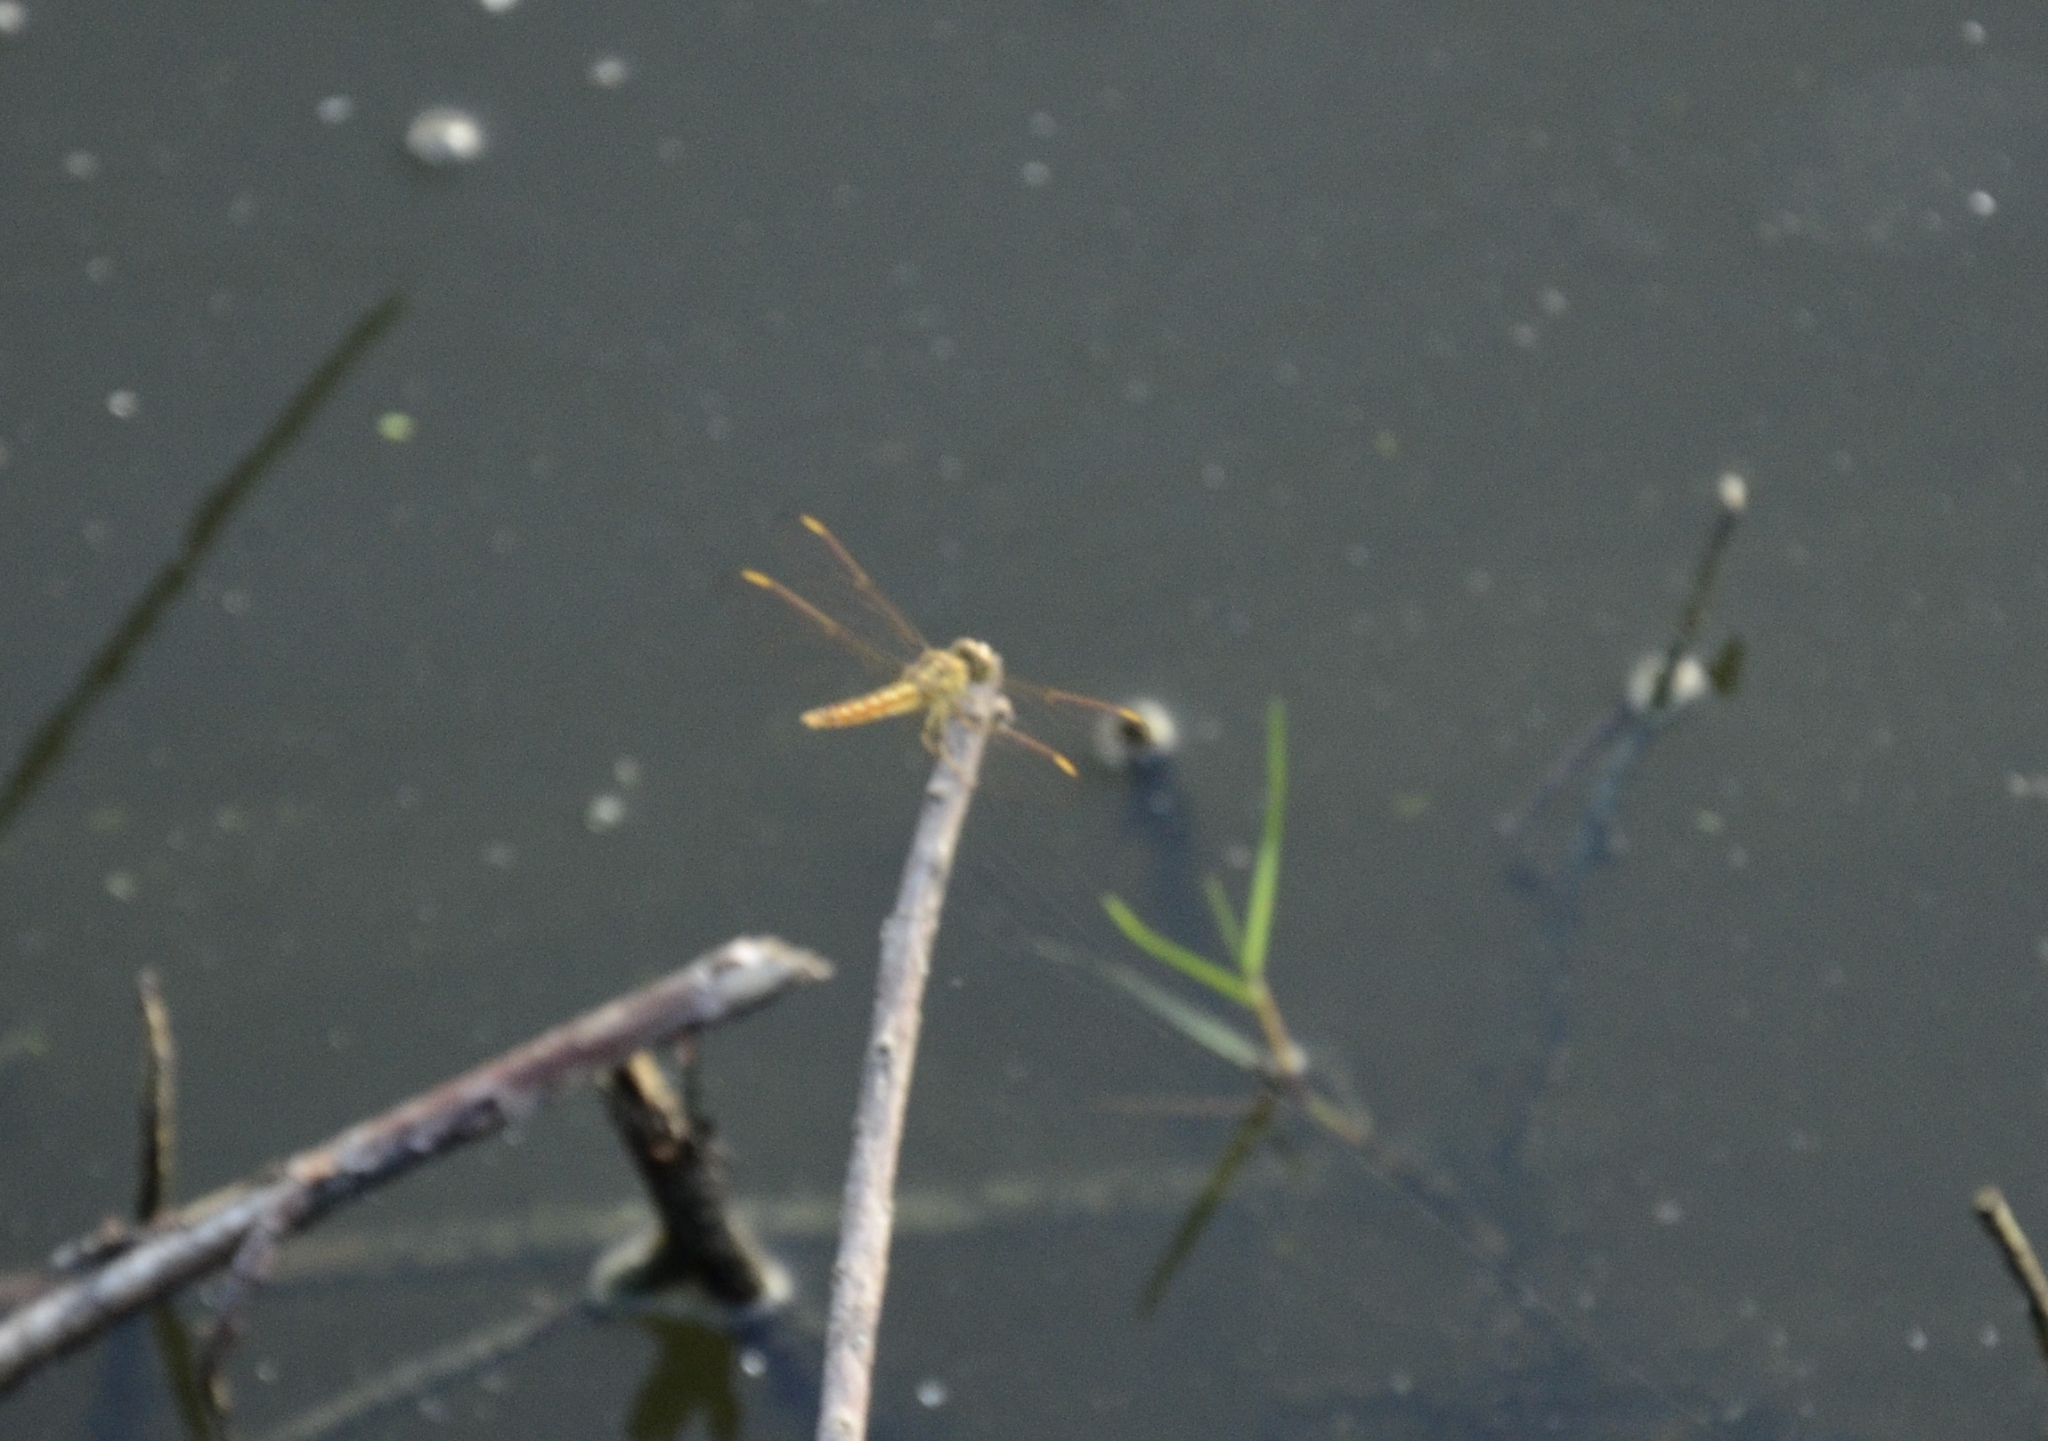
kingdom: Animalia
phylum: Arthropoda
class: Insecta
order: Odonata
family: Libellulidae
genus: Brachythemis
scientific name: Brachythemis contaminata
